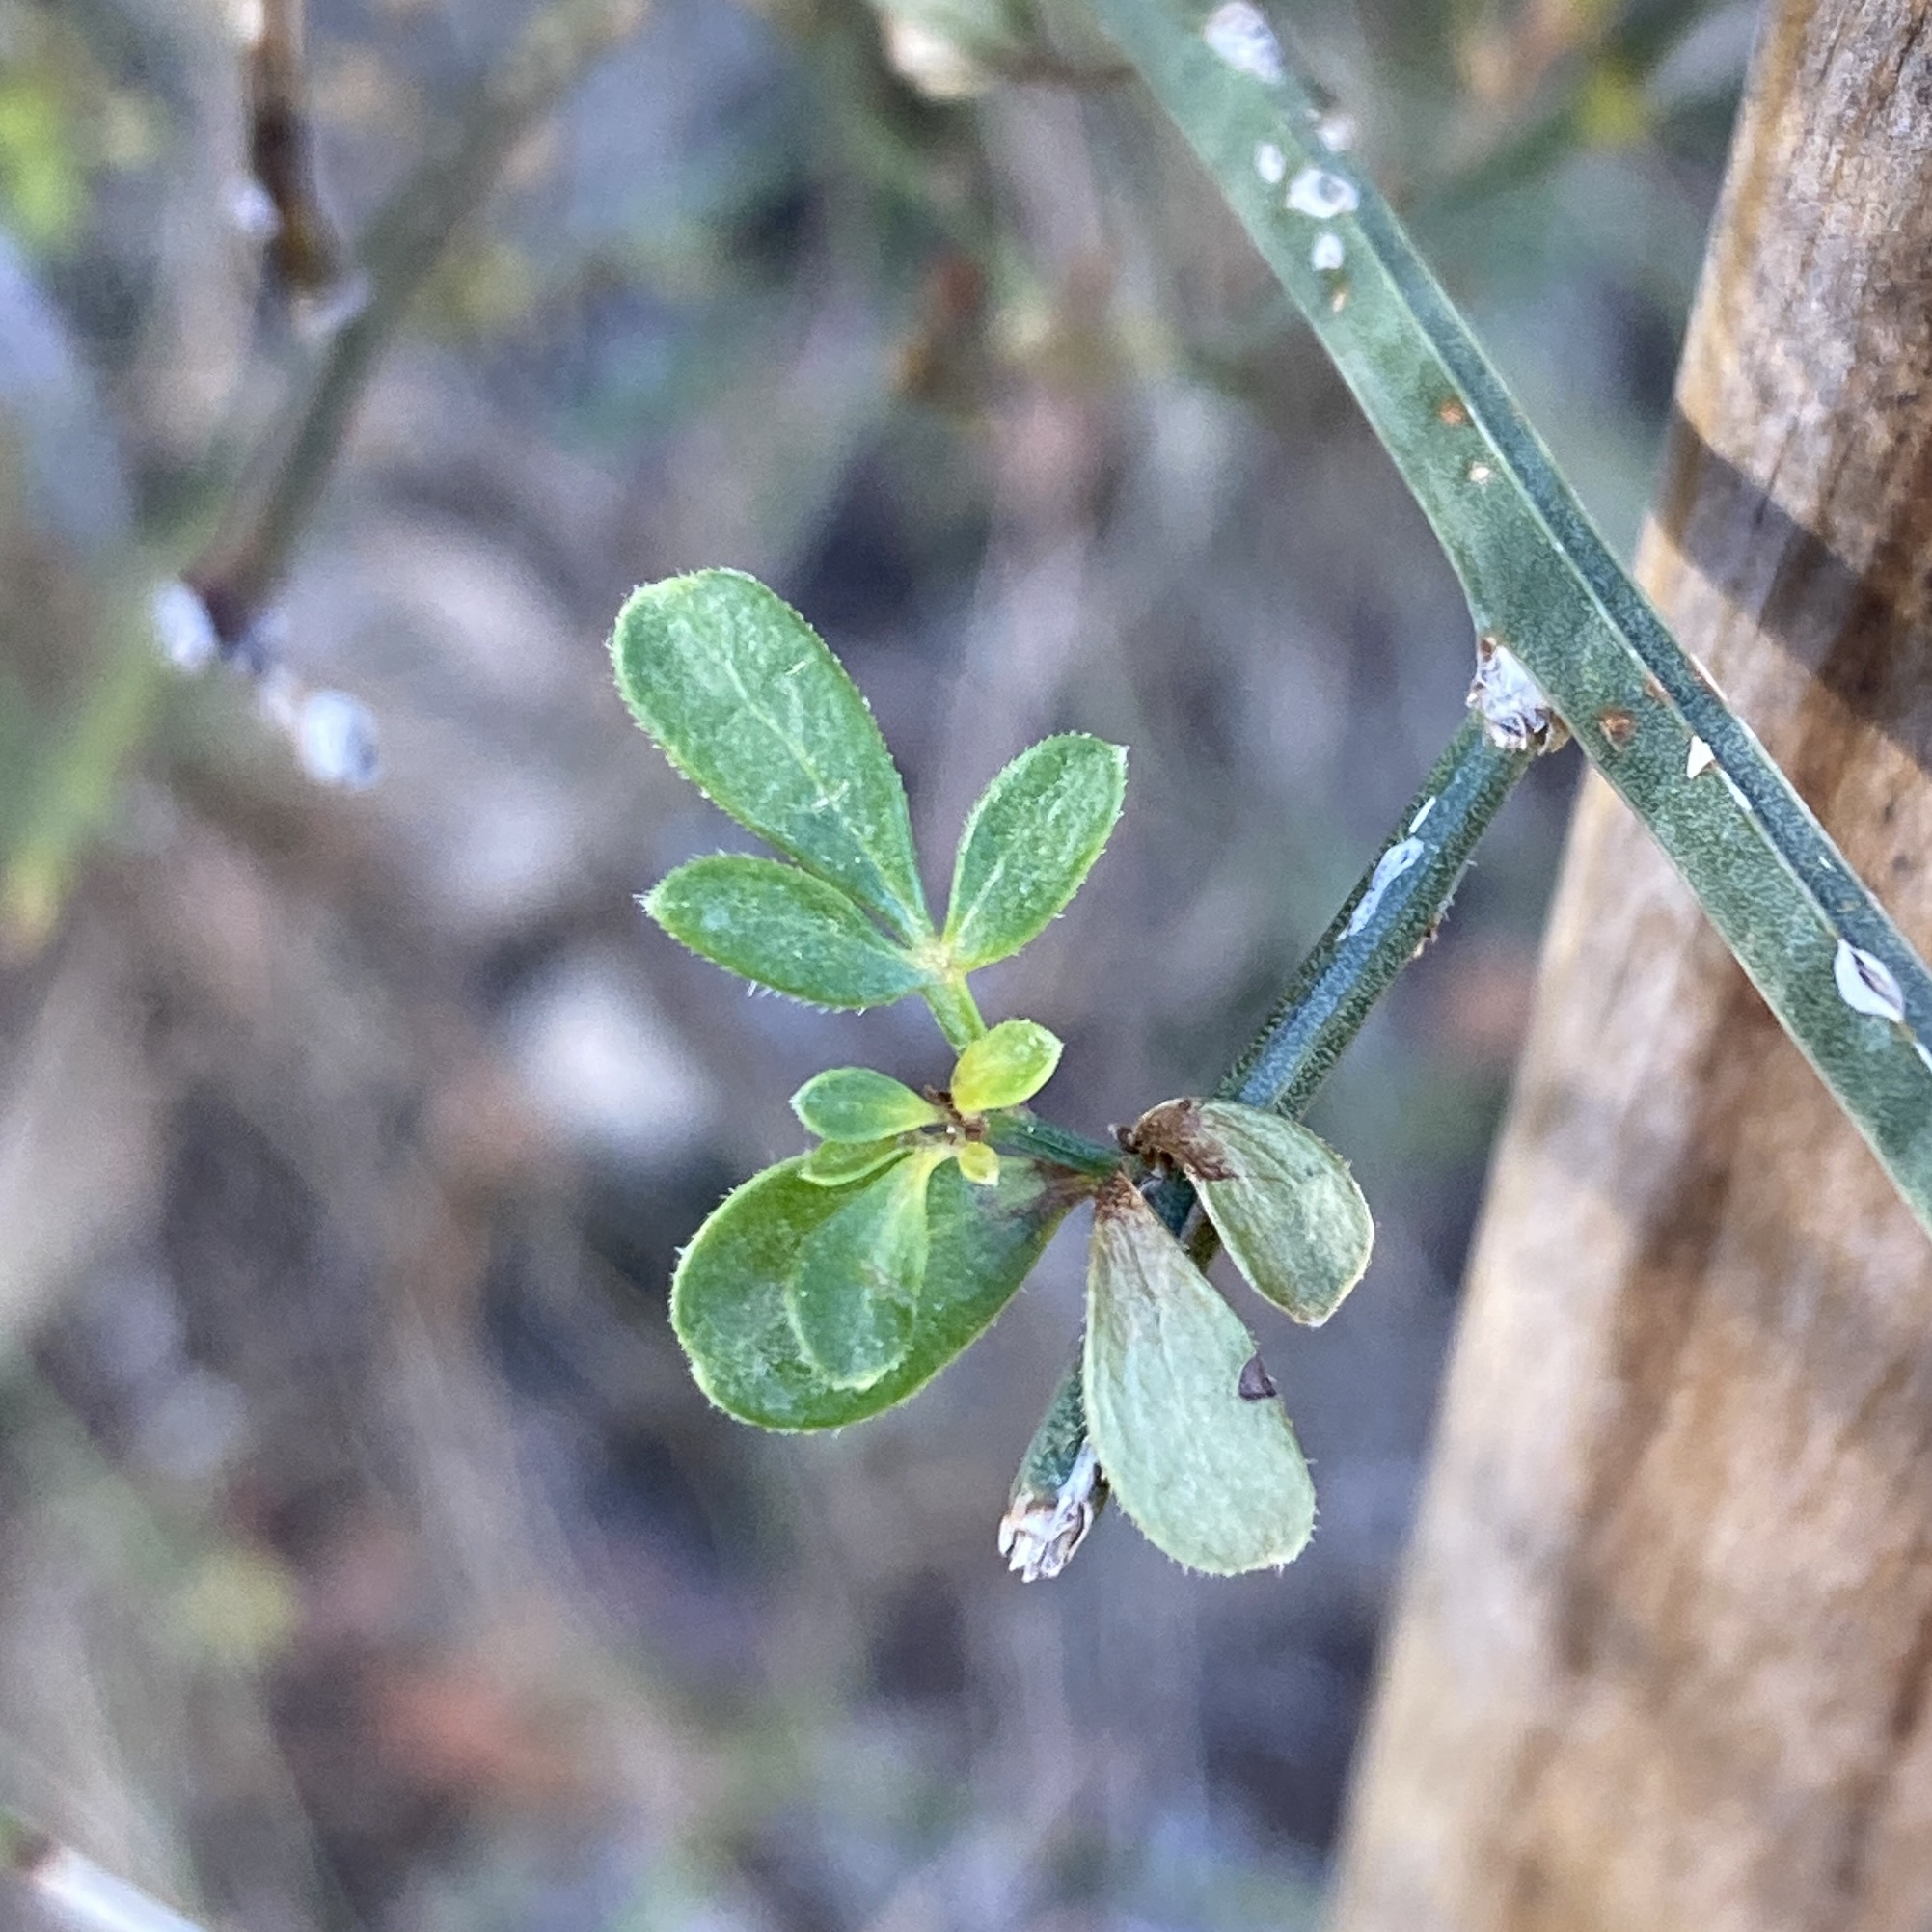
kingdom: Plantae
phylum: Tracheophyta
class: Magnoliopsida
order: Lamiales
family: Oleaceae
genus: Chrysojasminum
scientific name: Chrysojasminum fruticans
